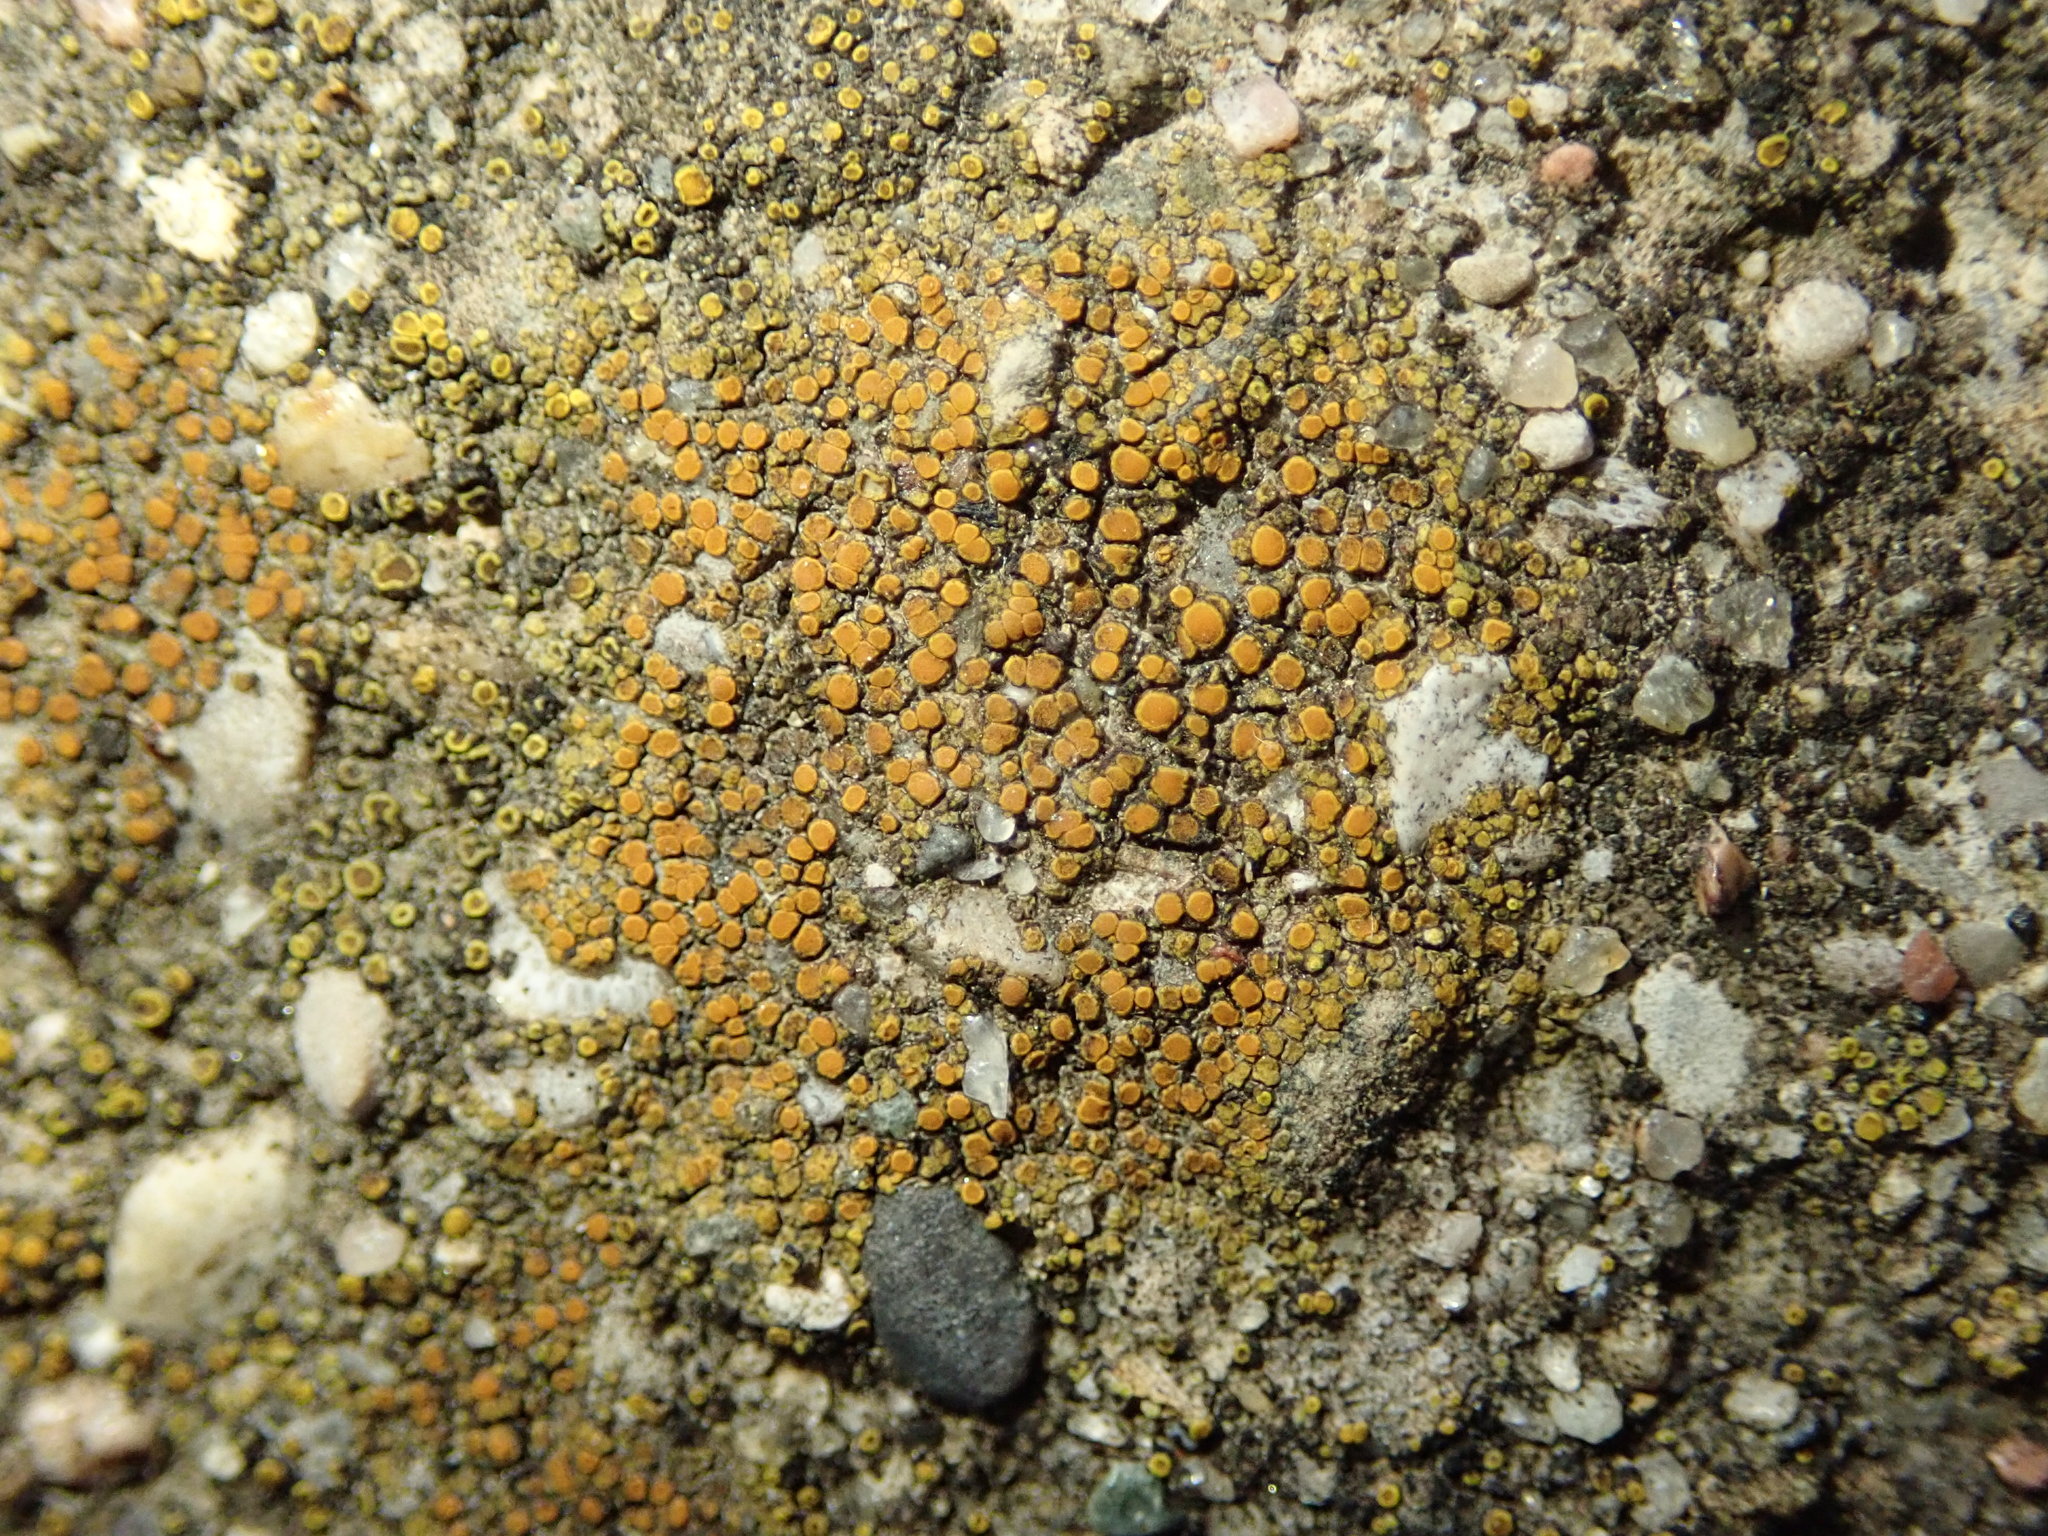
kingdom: Fungi
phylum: Ascomycota
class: Lecanoromycetes
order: Teloschistales
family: Teloschistaceae
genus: Xanthocarpia
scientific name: Xanthocarpia feracissima
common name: Sidewalk firedot
